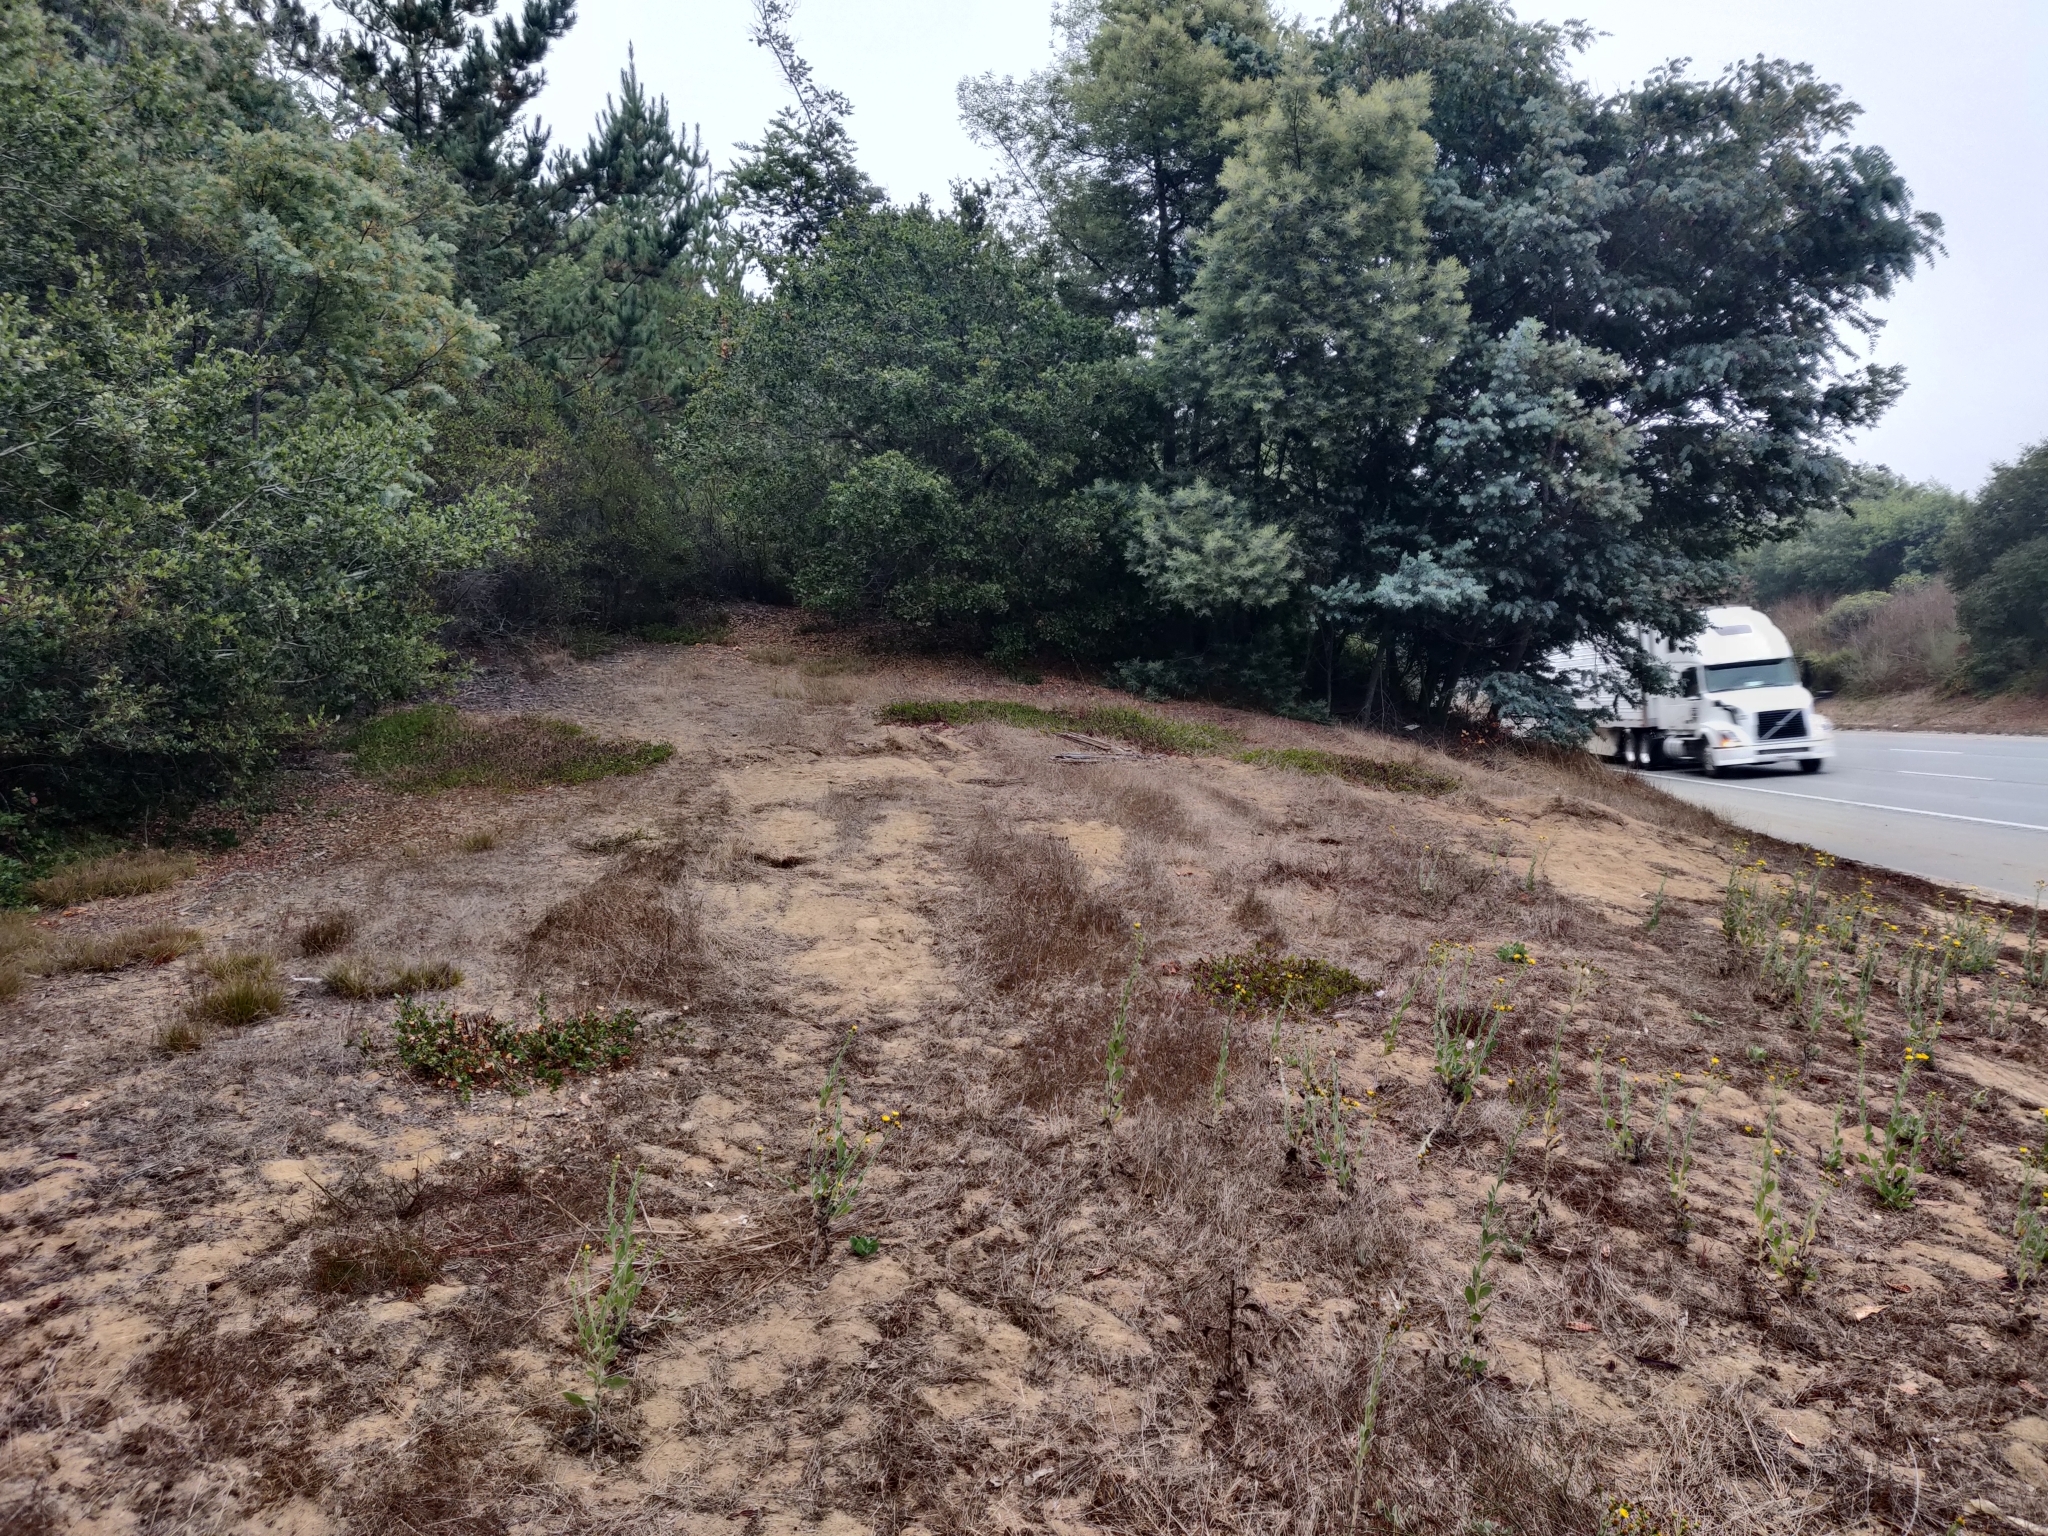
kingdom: Plantae
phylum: Tracheophyta
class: Magnoliopsida
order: Ericales
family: Ericaceae
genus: Arctostaphylos
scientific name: Arctostaphylos hookeri
